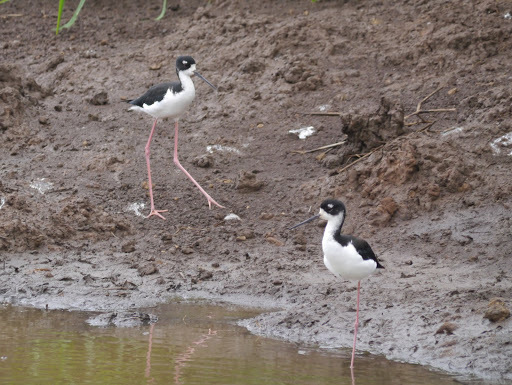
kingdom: Animalia
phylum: Chordata
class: Aves
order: Charadriiformes
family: Recurvirostridae
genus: Himantopus
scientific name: Himantopus mexicanus
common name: Black-necked stilt
